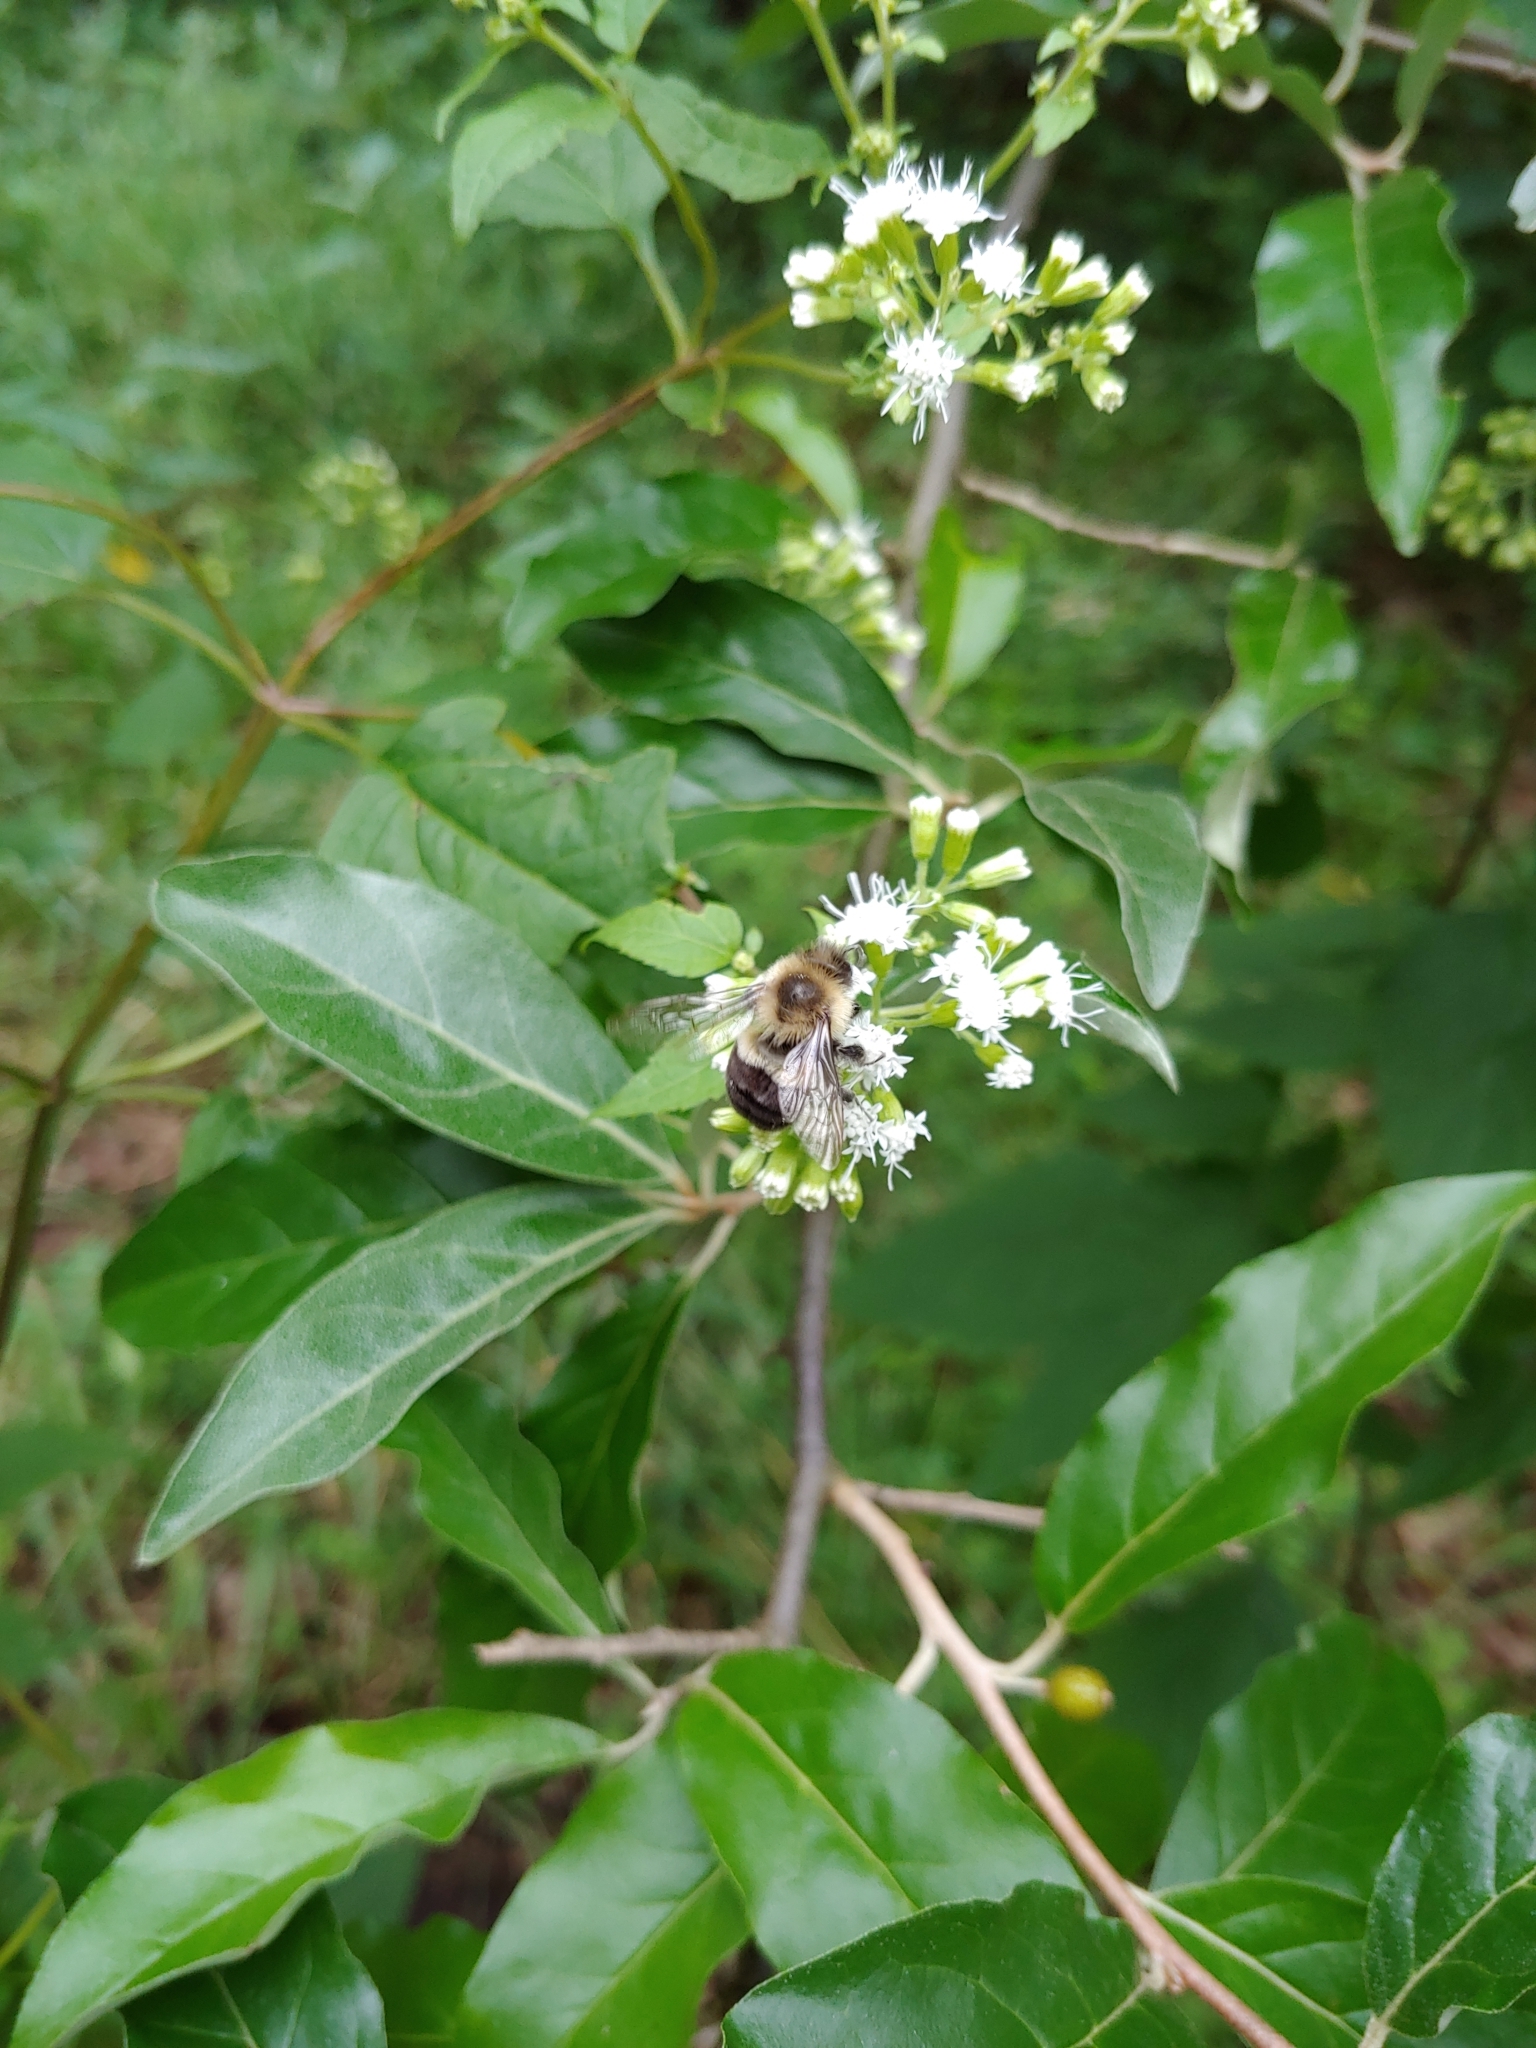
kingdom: Animalia
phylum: Arthropoda
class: Insecta
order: Hymenoptera
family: Apidae
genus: Bombus
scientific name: Bombus impatiens
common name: Common eastern bumble bee
